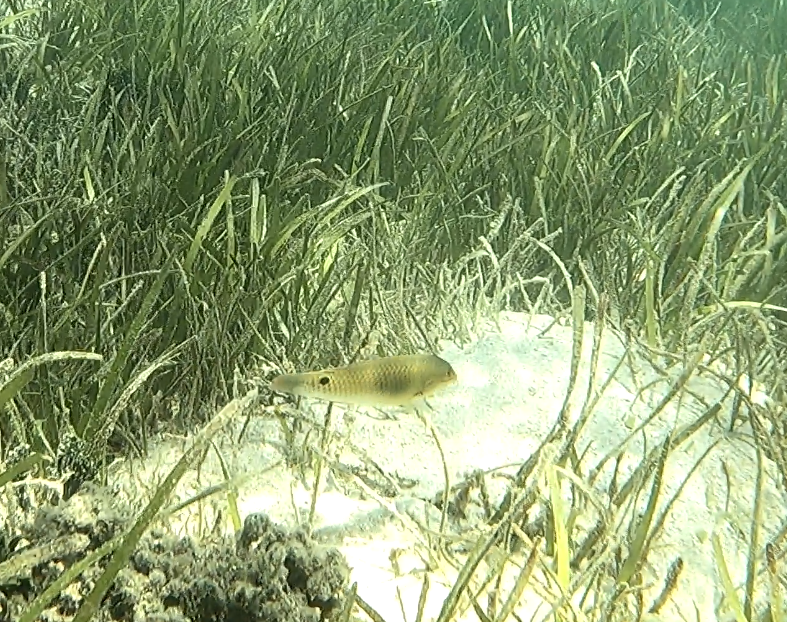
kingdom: Animalia
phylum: Chordata
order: Perciformes
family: Labridae
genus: Halichoeres
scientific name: Halichoeres trimaculatus
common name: Three-spot wrasse
